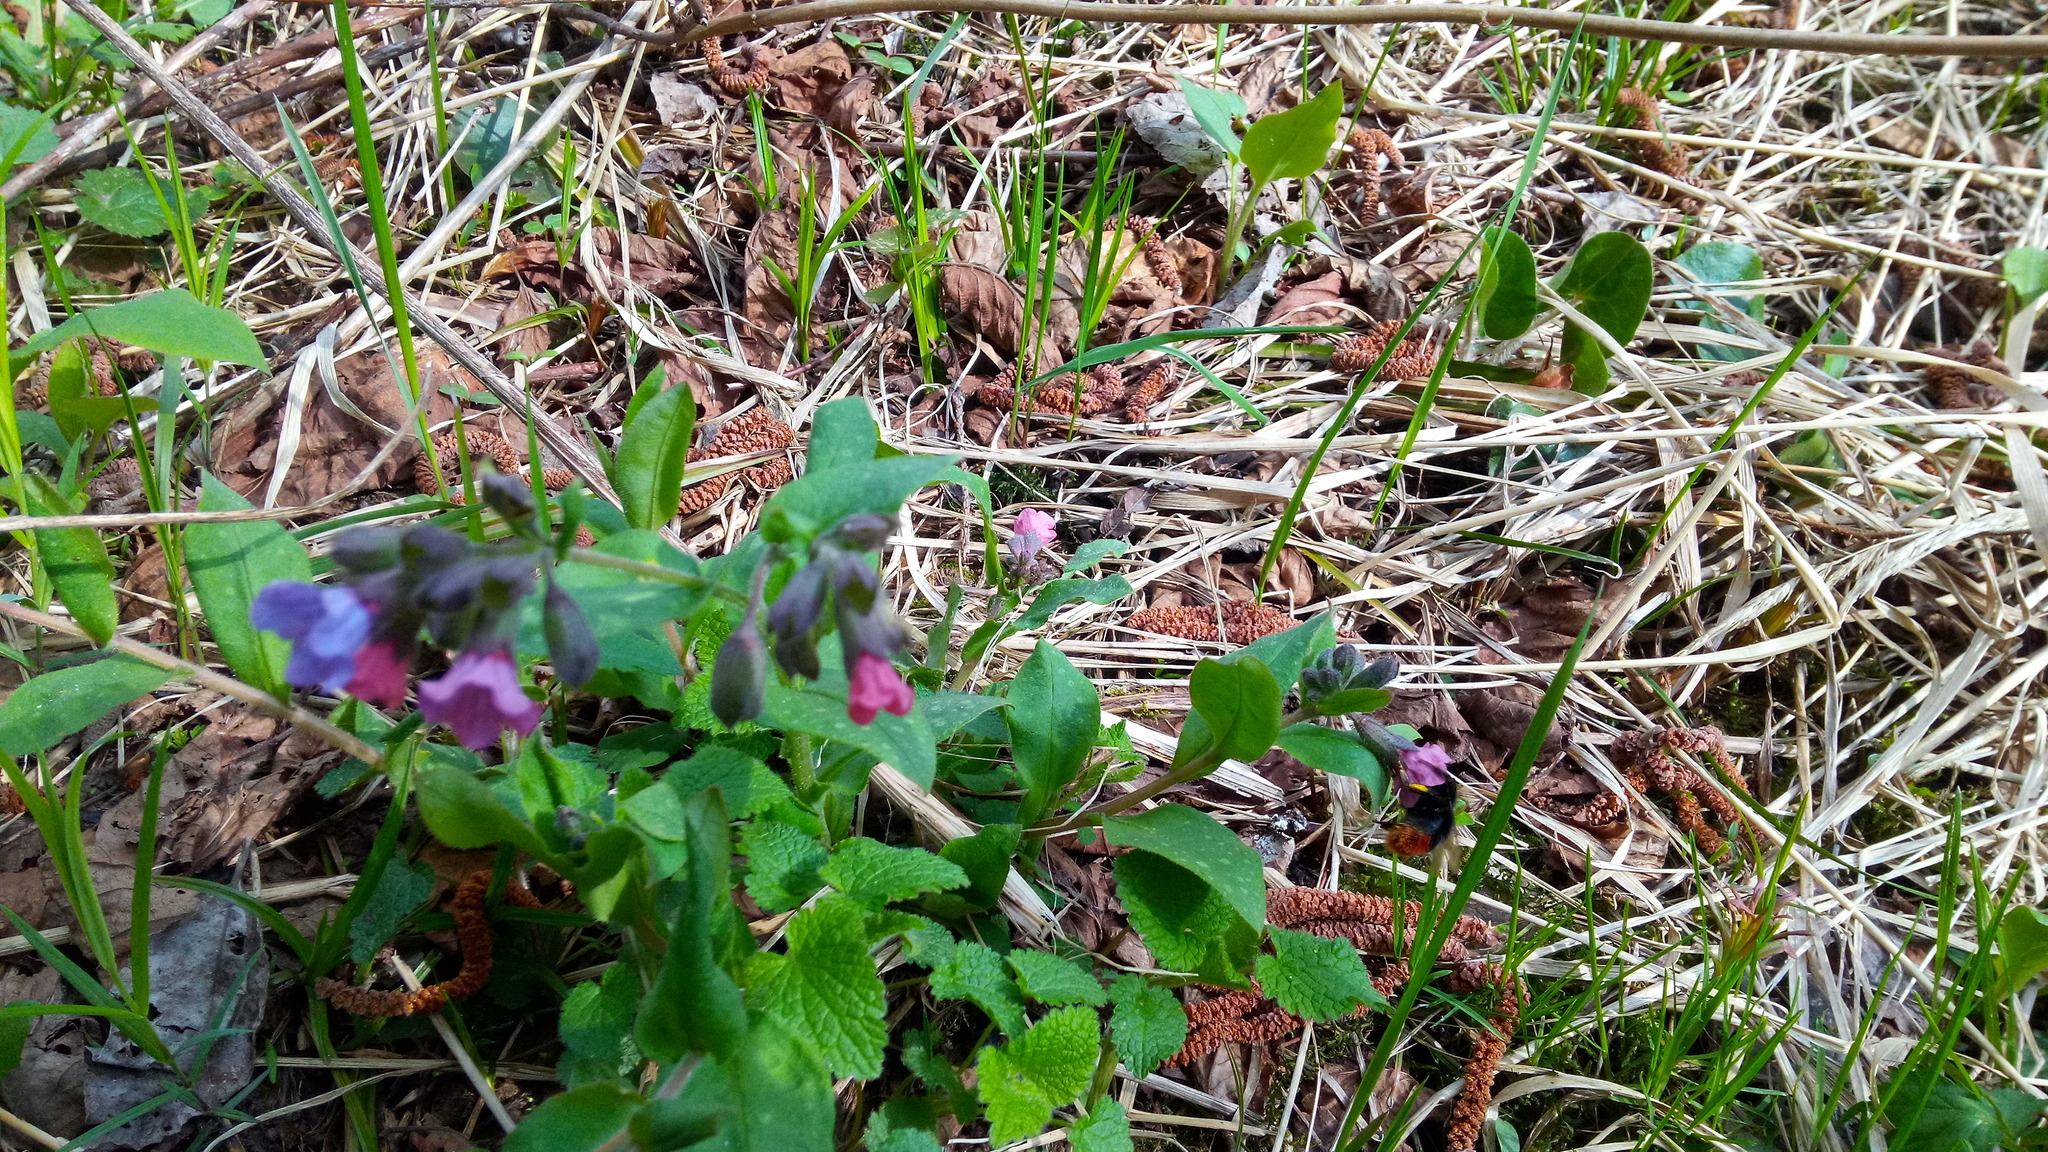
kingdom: Animalia
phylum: Arthropoda
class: Insecta
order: Hymenoptera
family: Apidae
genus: Bombus
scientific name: Bombus lapidarius
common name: Large red-tailed humble-bee
